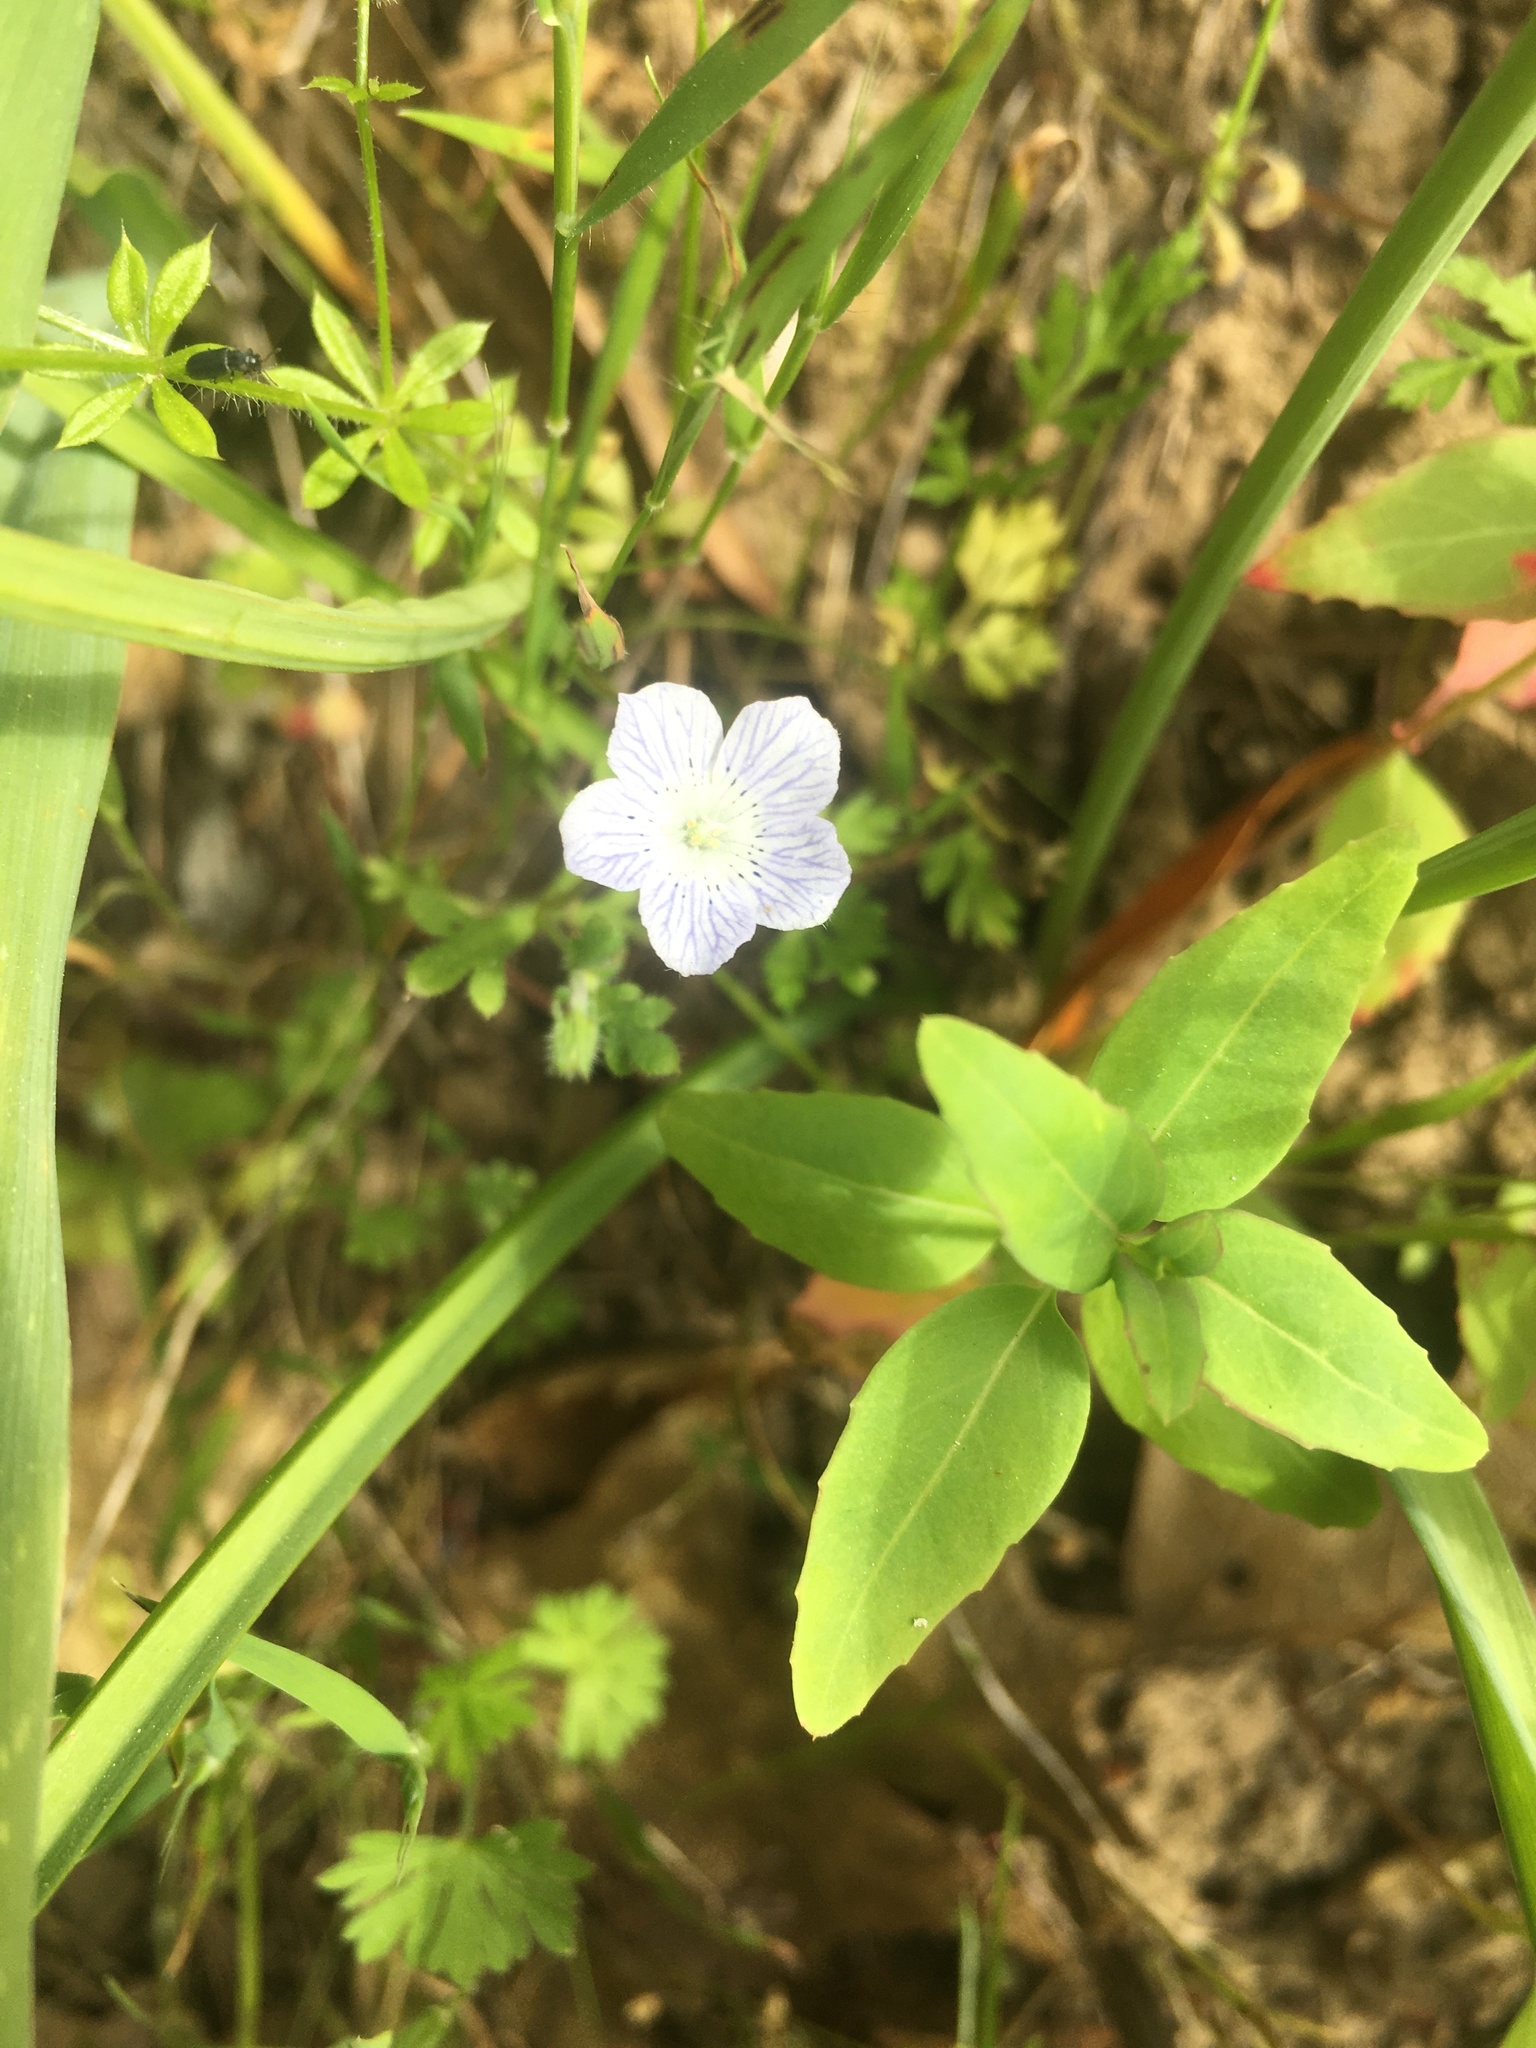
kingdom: Plantae
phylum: Tracheophyta
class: Magnoliopsida
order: Boraginales
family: Hydrophyllaceae
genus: Nemophila
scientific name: Nemophila menziesii
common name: Baby's-blue-eyes
